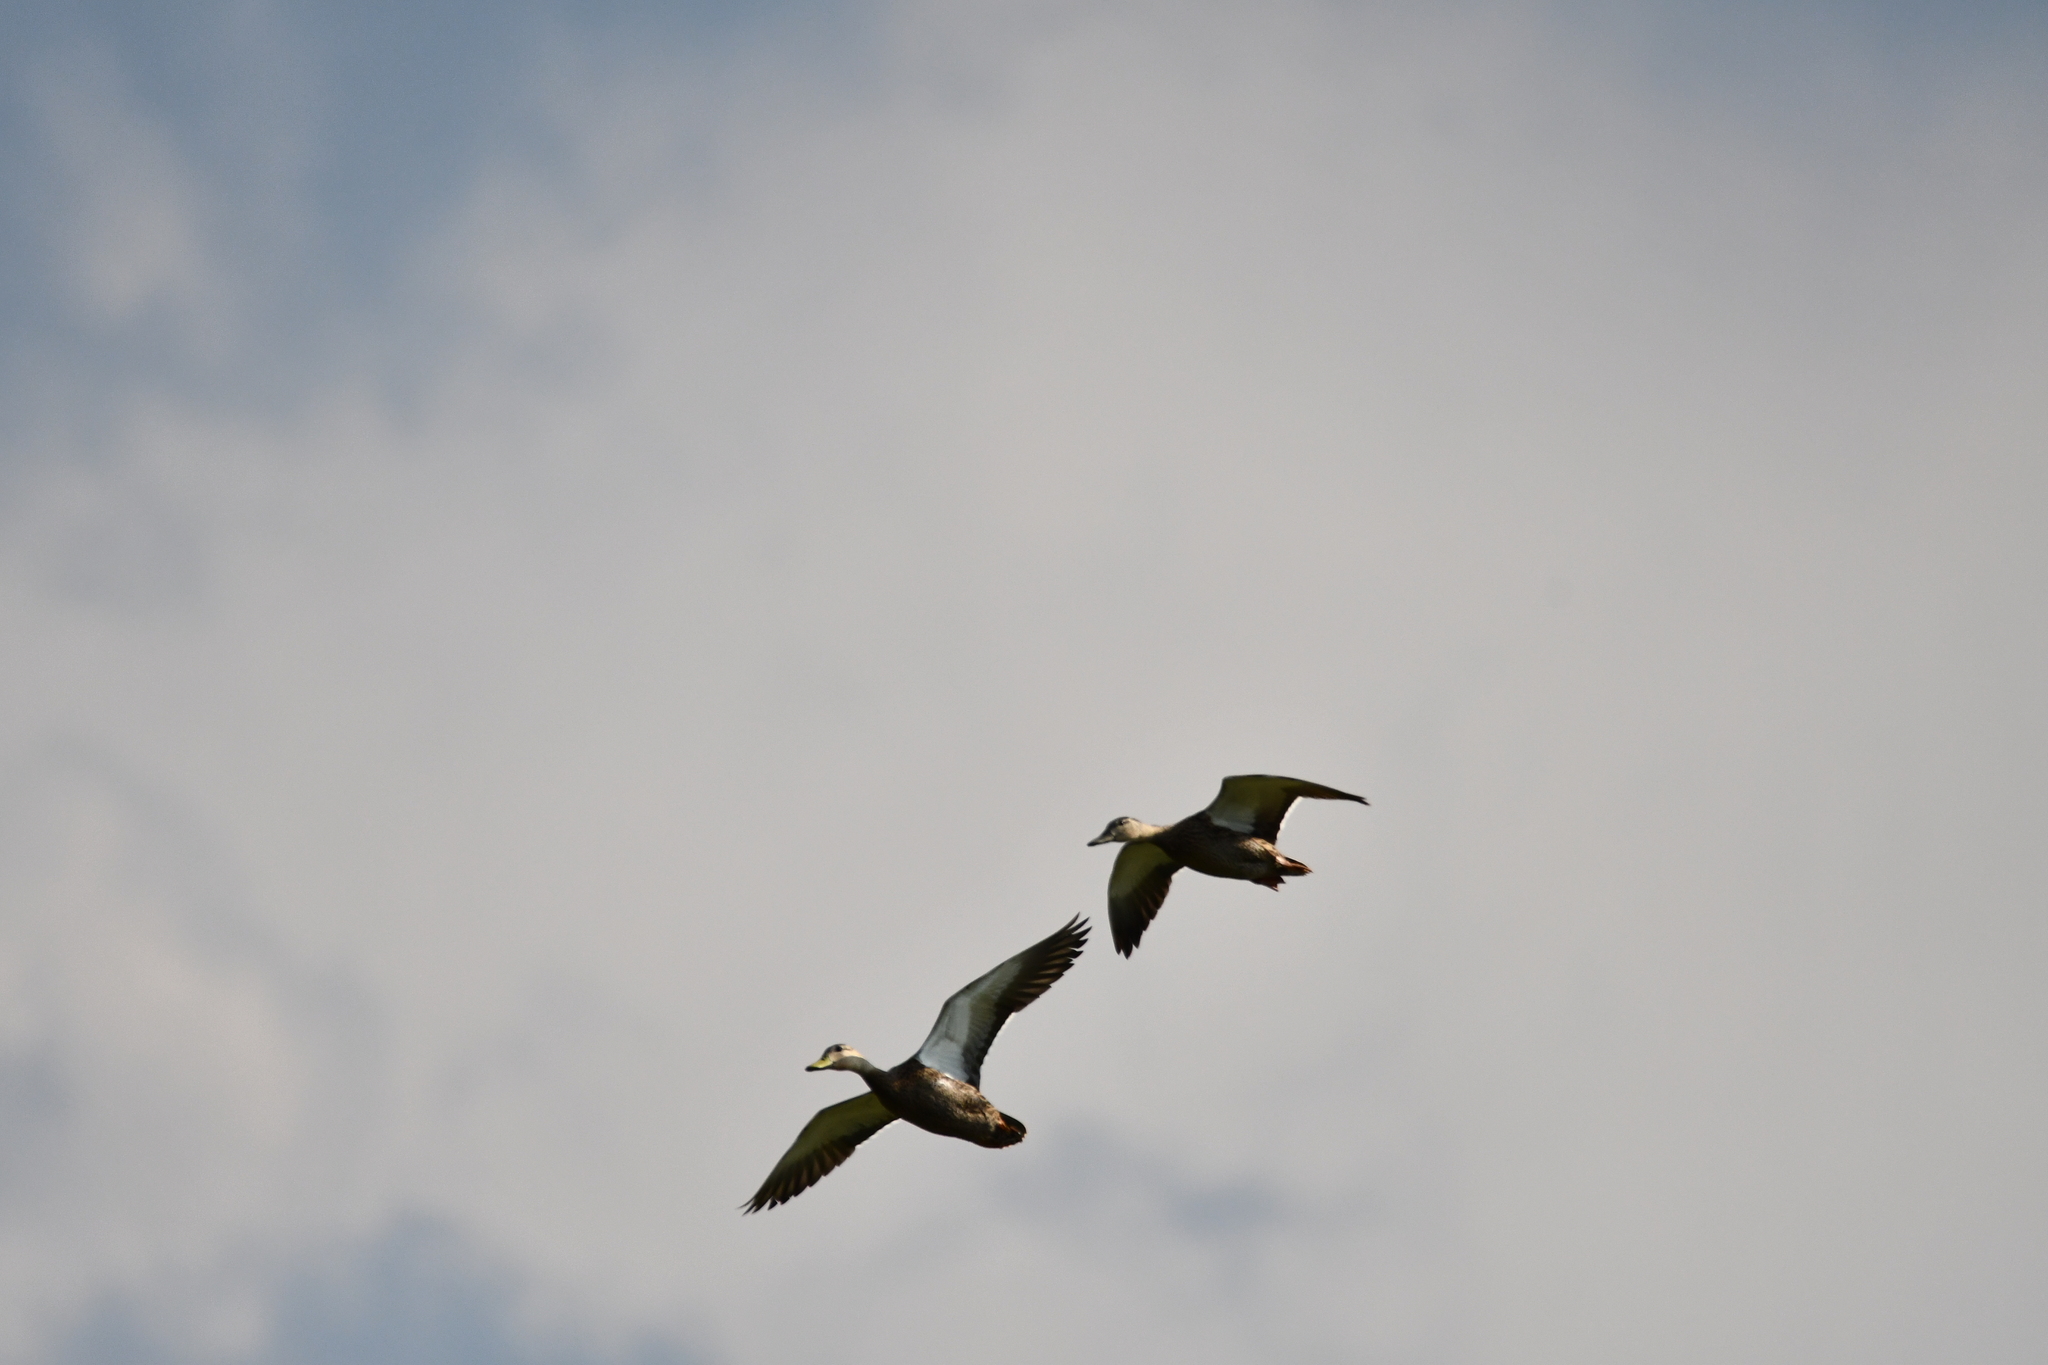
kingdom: Animalia
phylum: Chordata
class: Aves
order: Anseriformes
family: Anatidae
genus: Anas
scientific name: Anas diazi
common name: Mexican duck
